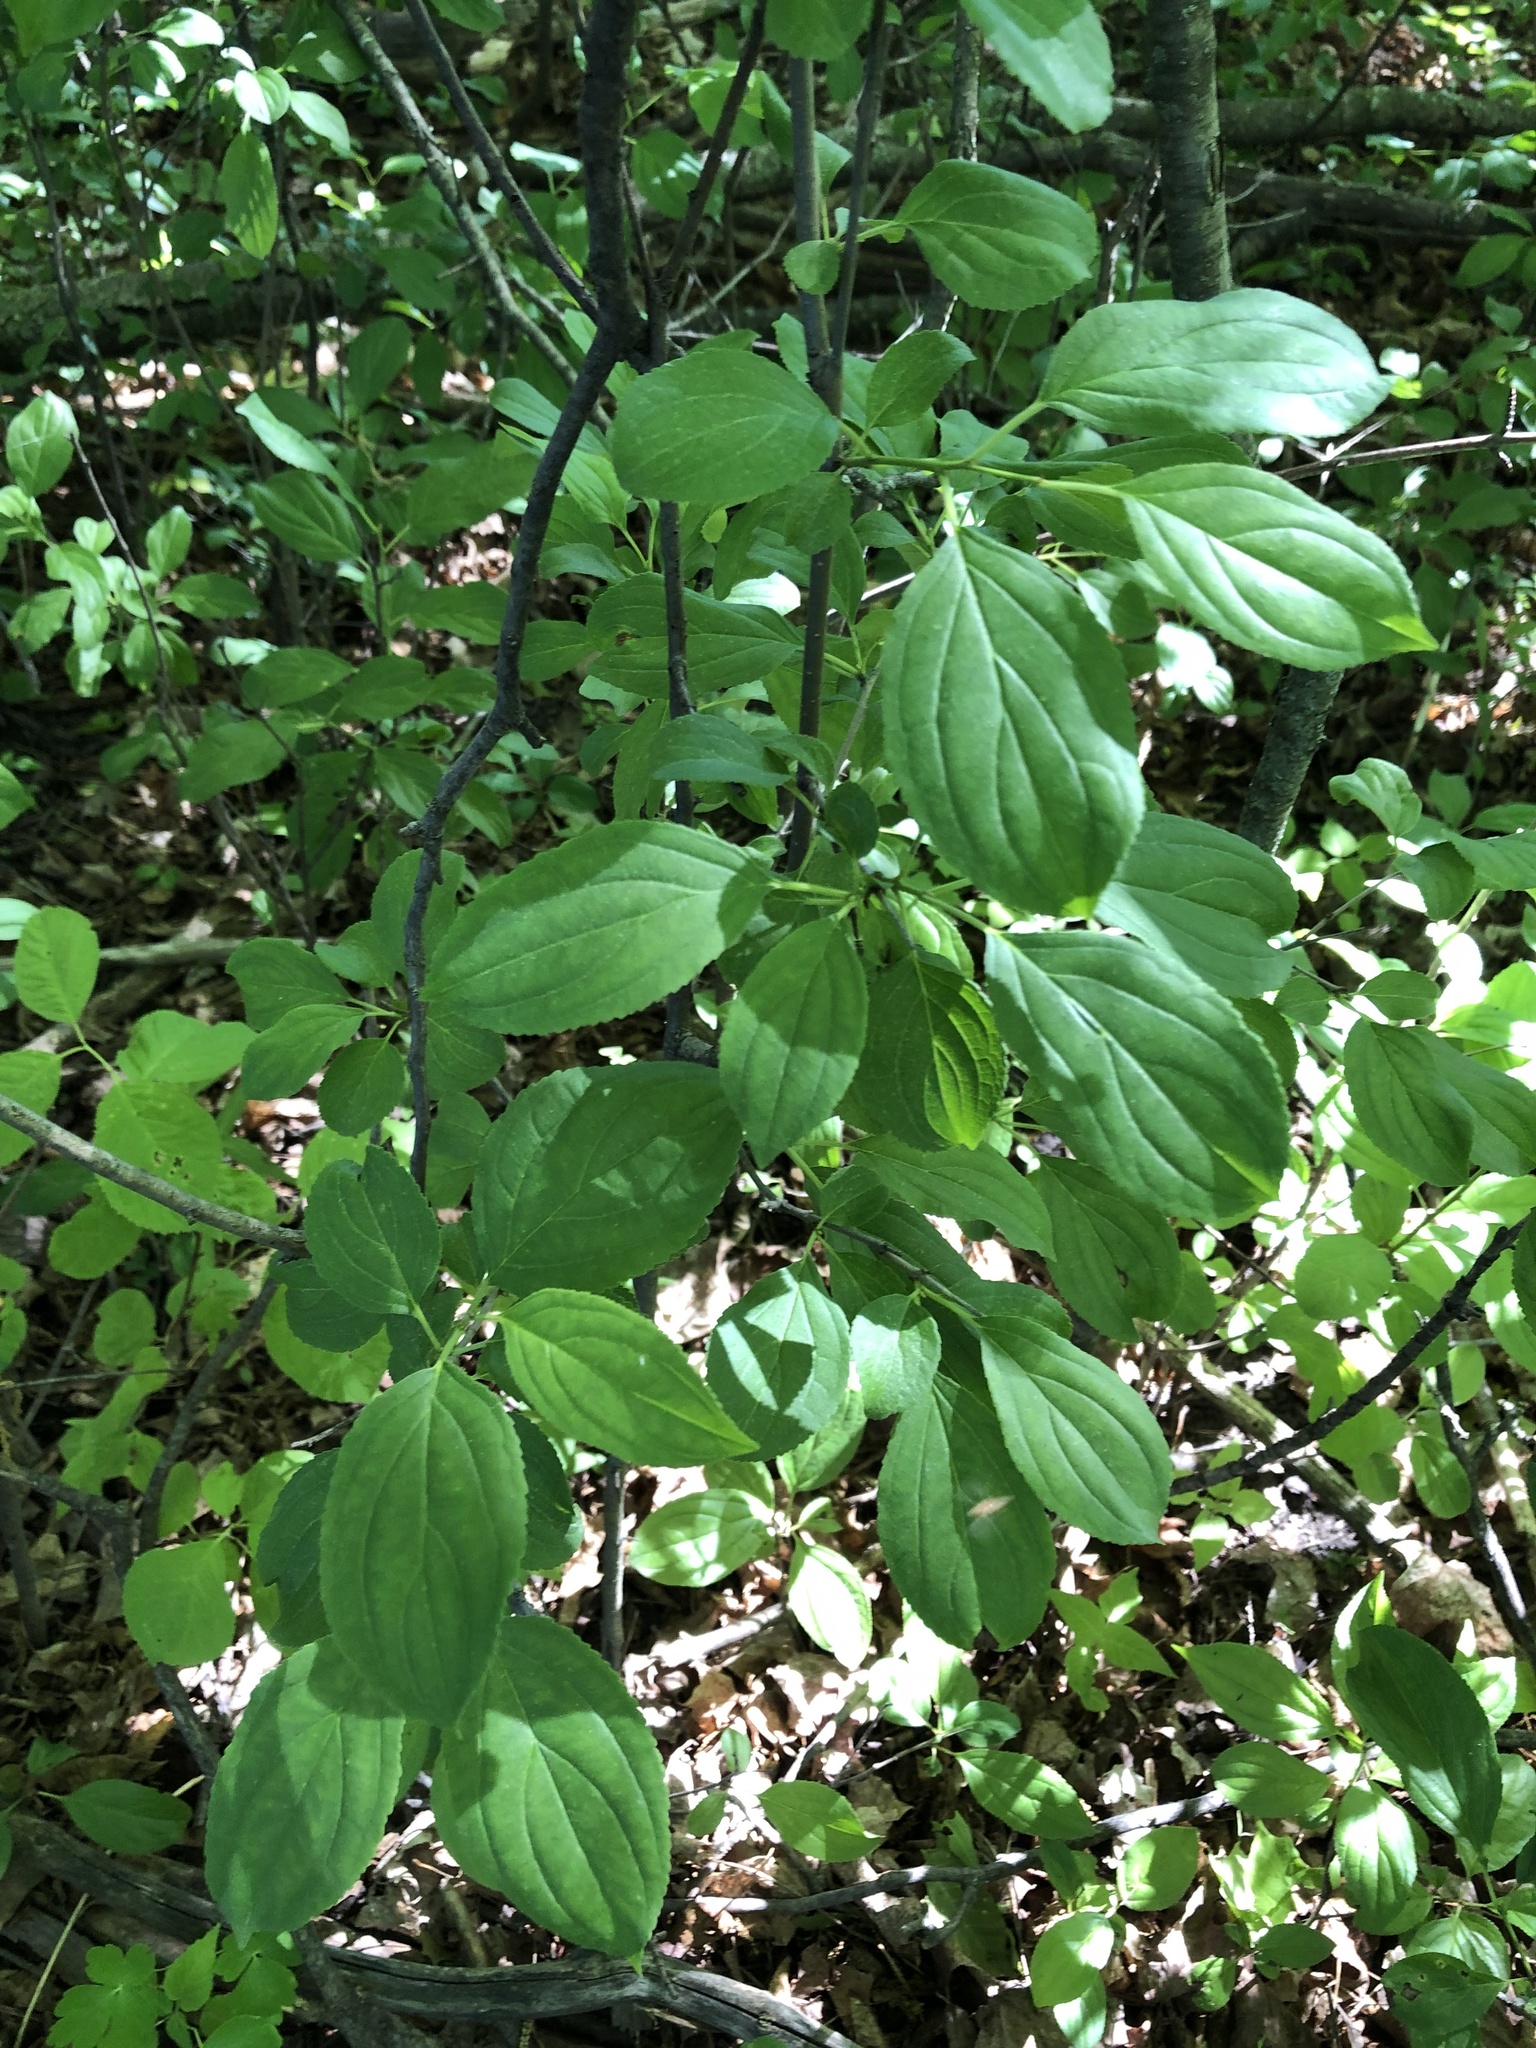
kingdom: Plantae
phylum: Tracheophyta
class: Magnoliopsida
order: Rosales
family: Rhamnaceae
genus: Rhamnus
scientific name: Rhamnus cathartica
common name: Common buckthorn
